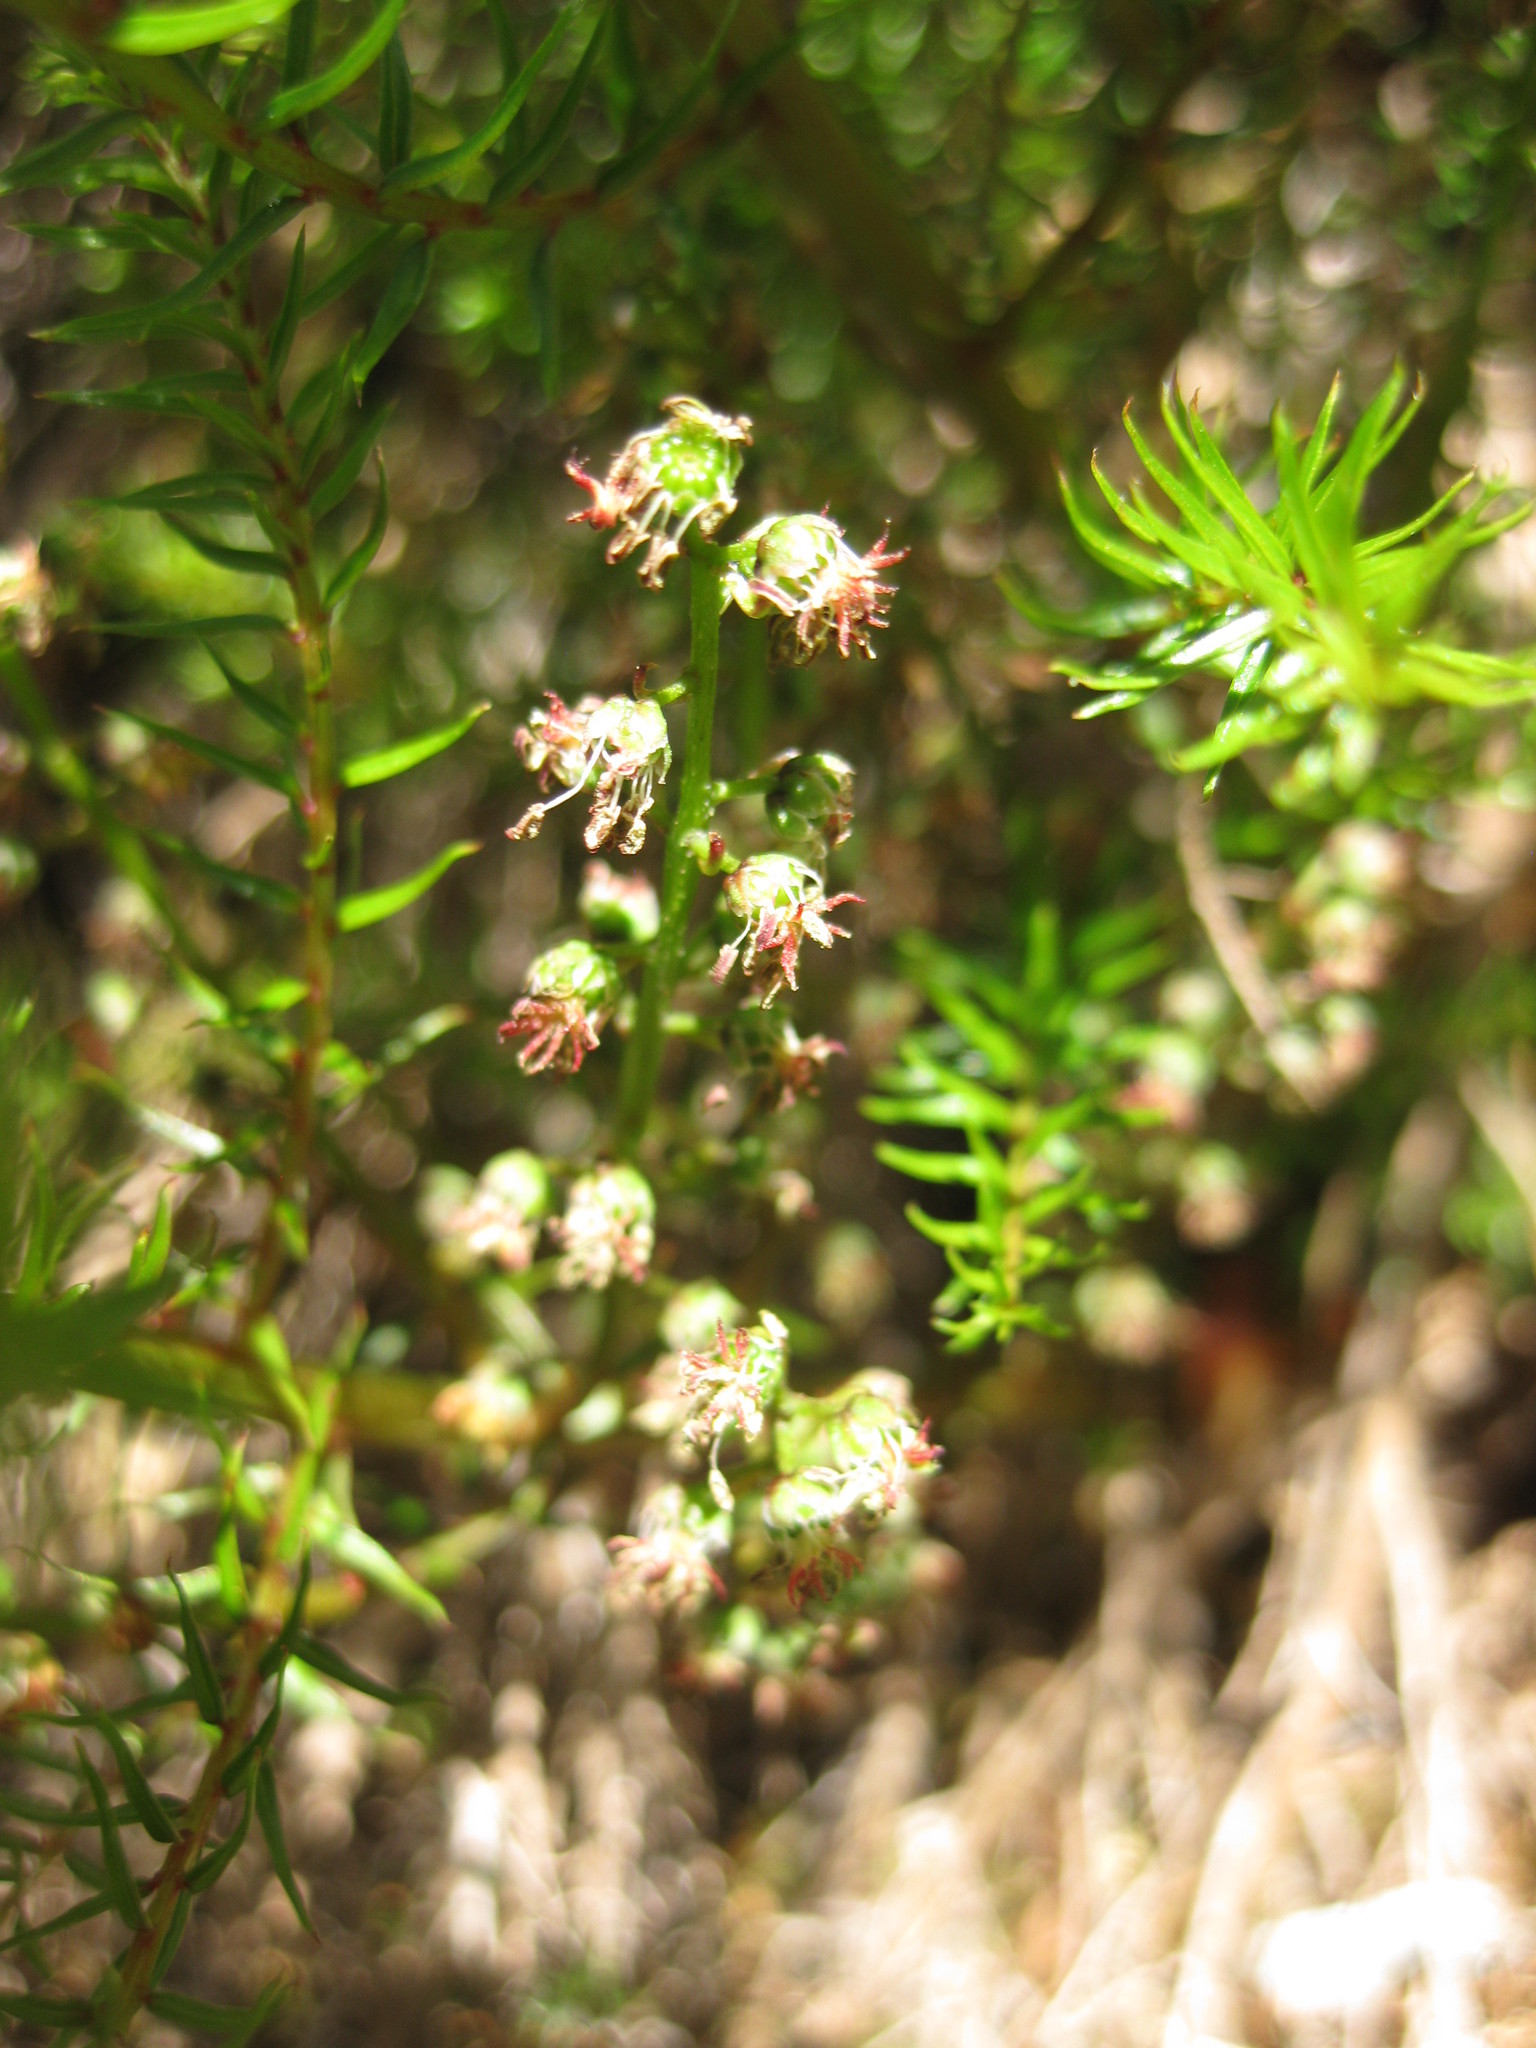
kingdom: Plantae
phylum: Tracheophyta
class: Magnoliopsida
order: Cucurbitales
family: Coriariaceae
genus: Coriaria
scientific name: Coriaria angustissima
